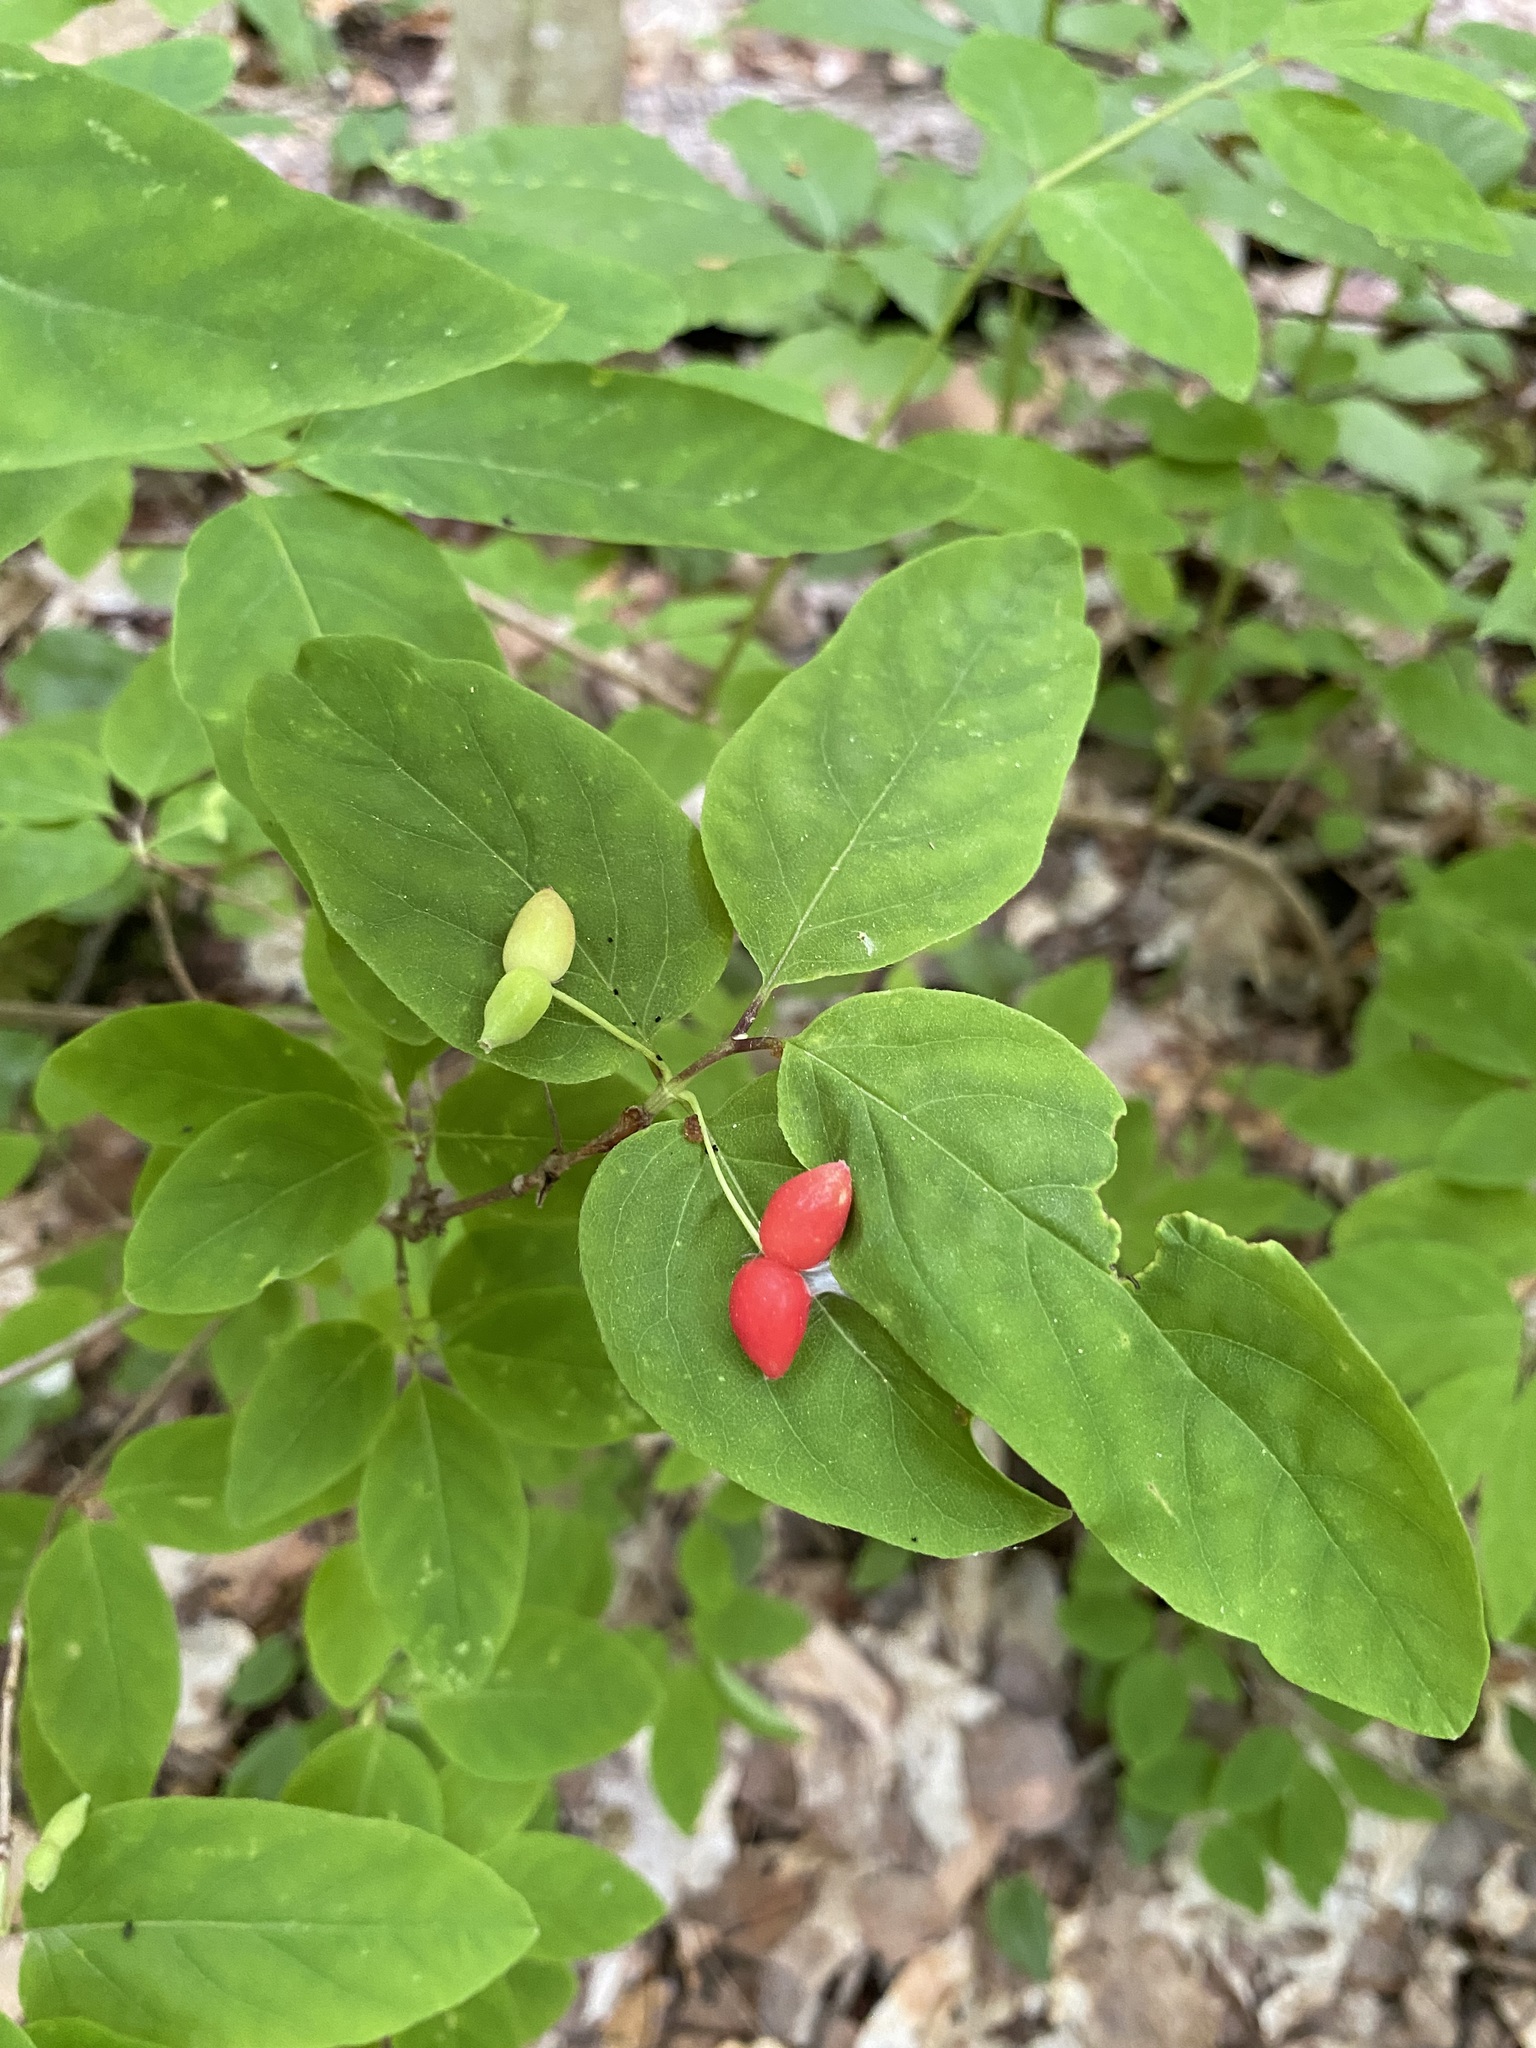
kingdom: Plantae
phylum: Tracheophyta
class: Magnoliopsida
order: Dipsacales
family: Caprifoliaceae
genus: Lonicera
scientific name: Lonicera canadensis
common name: American fly-honeysuckle
